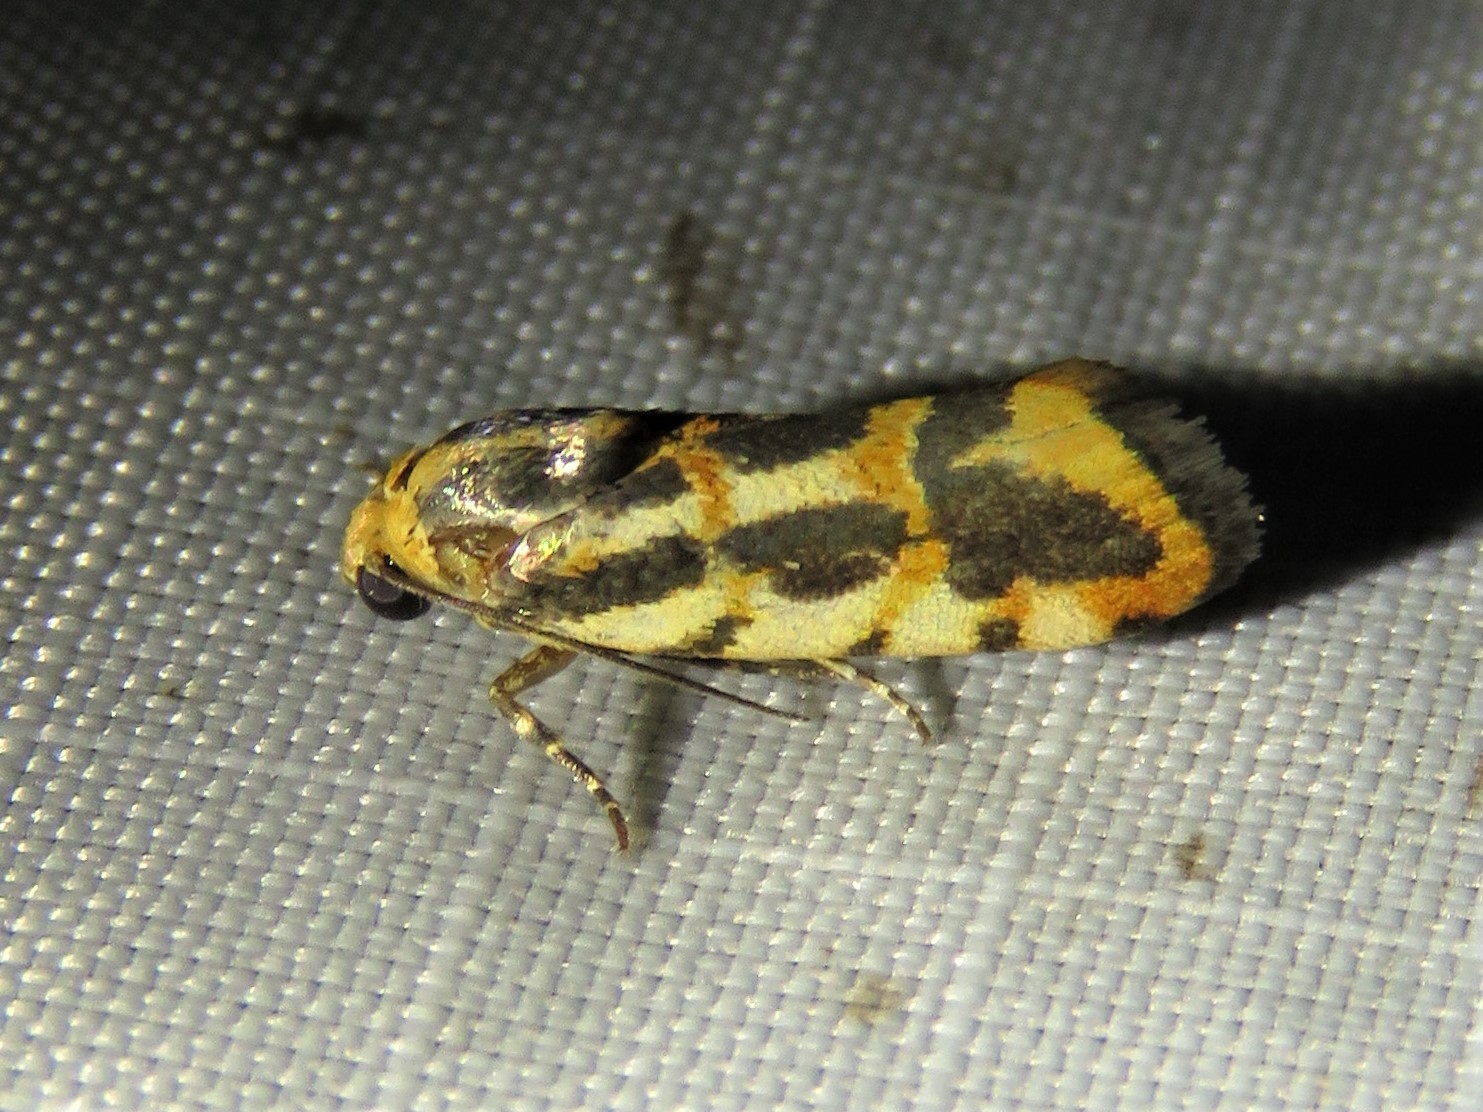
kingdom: Animalia
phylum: Arthropoda
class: Insecta
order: Lepidoptera
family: Noctuidae
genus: Acontia
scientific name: Acontia leo
